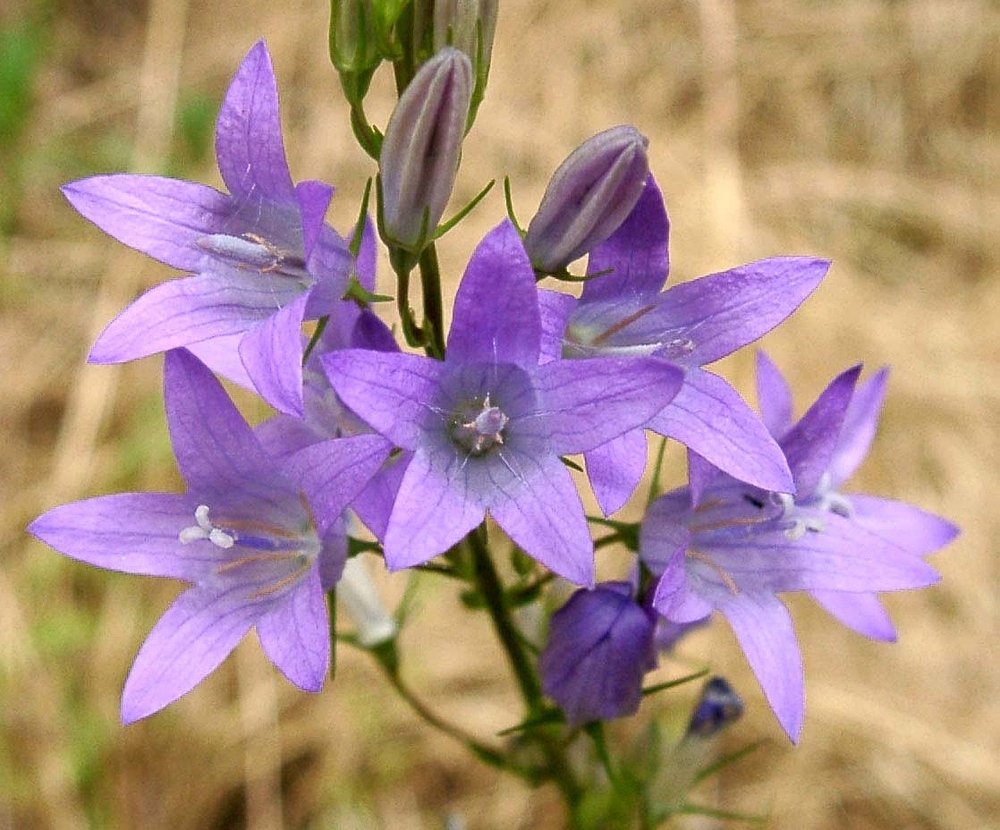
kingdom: Plantae
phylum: Tracheophyta
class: Magnoliopsida
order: Asterales
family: Campanulaceae
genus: Campanula
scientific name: Campanula rapunculus
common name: Rampion bellflower
